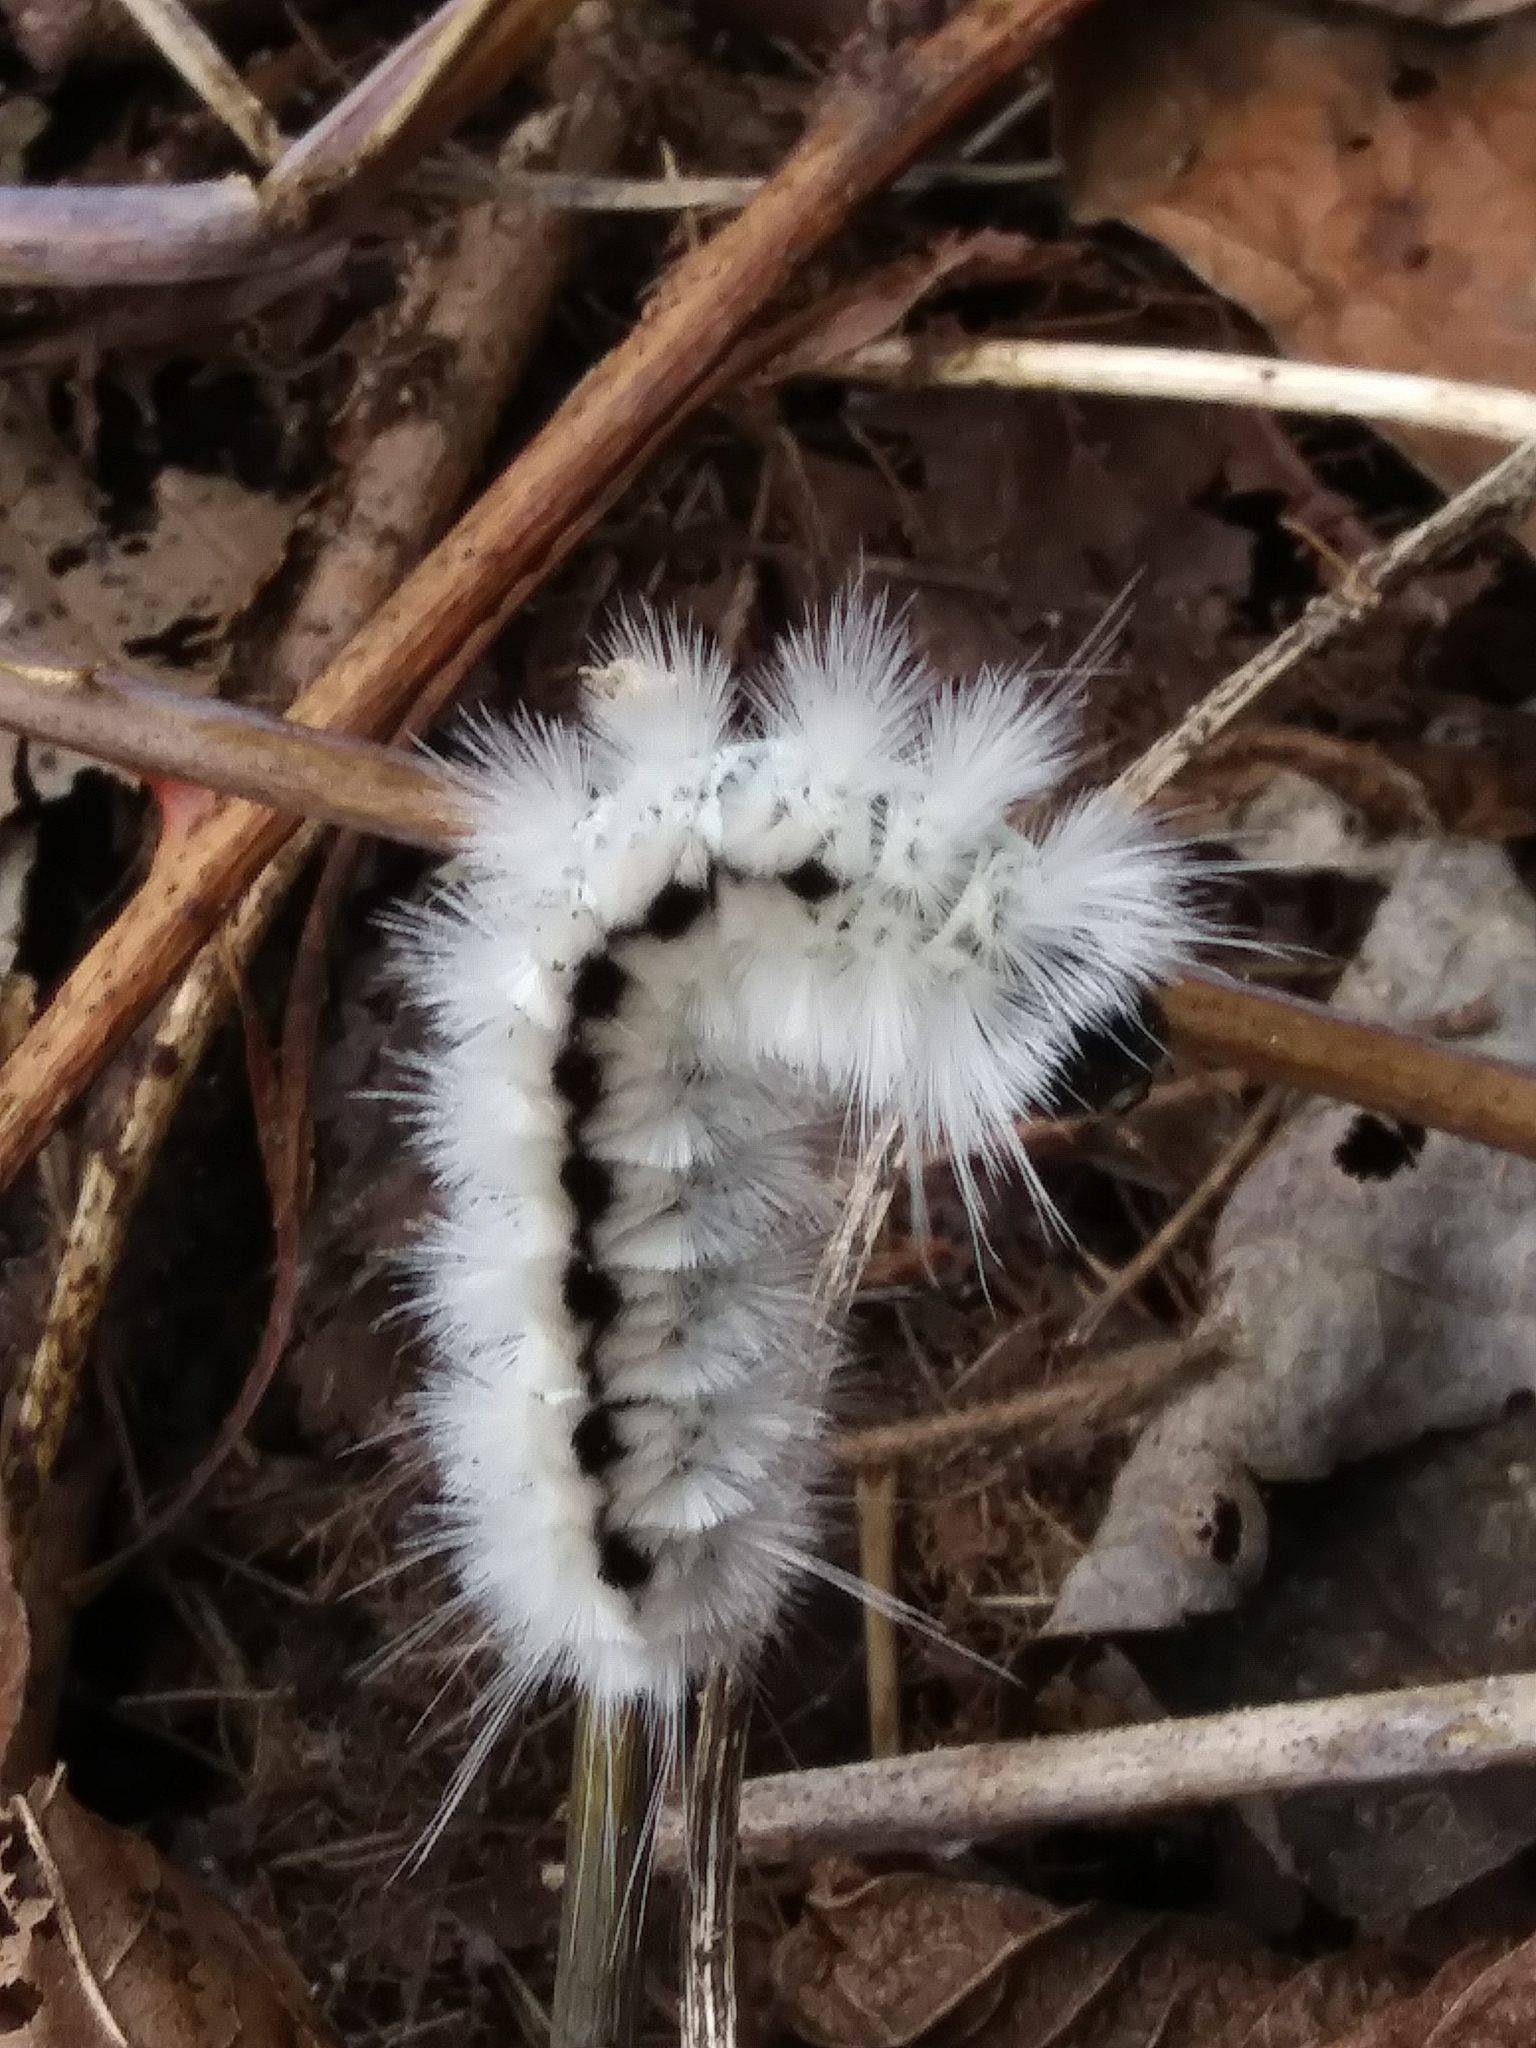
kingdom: Animalia
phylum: Arthropoda
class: Insecta
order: Lepidoptera
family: Erebidae
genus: Lophocampa
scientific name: Lophocampa caryae
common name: Hickory tussock moth
